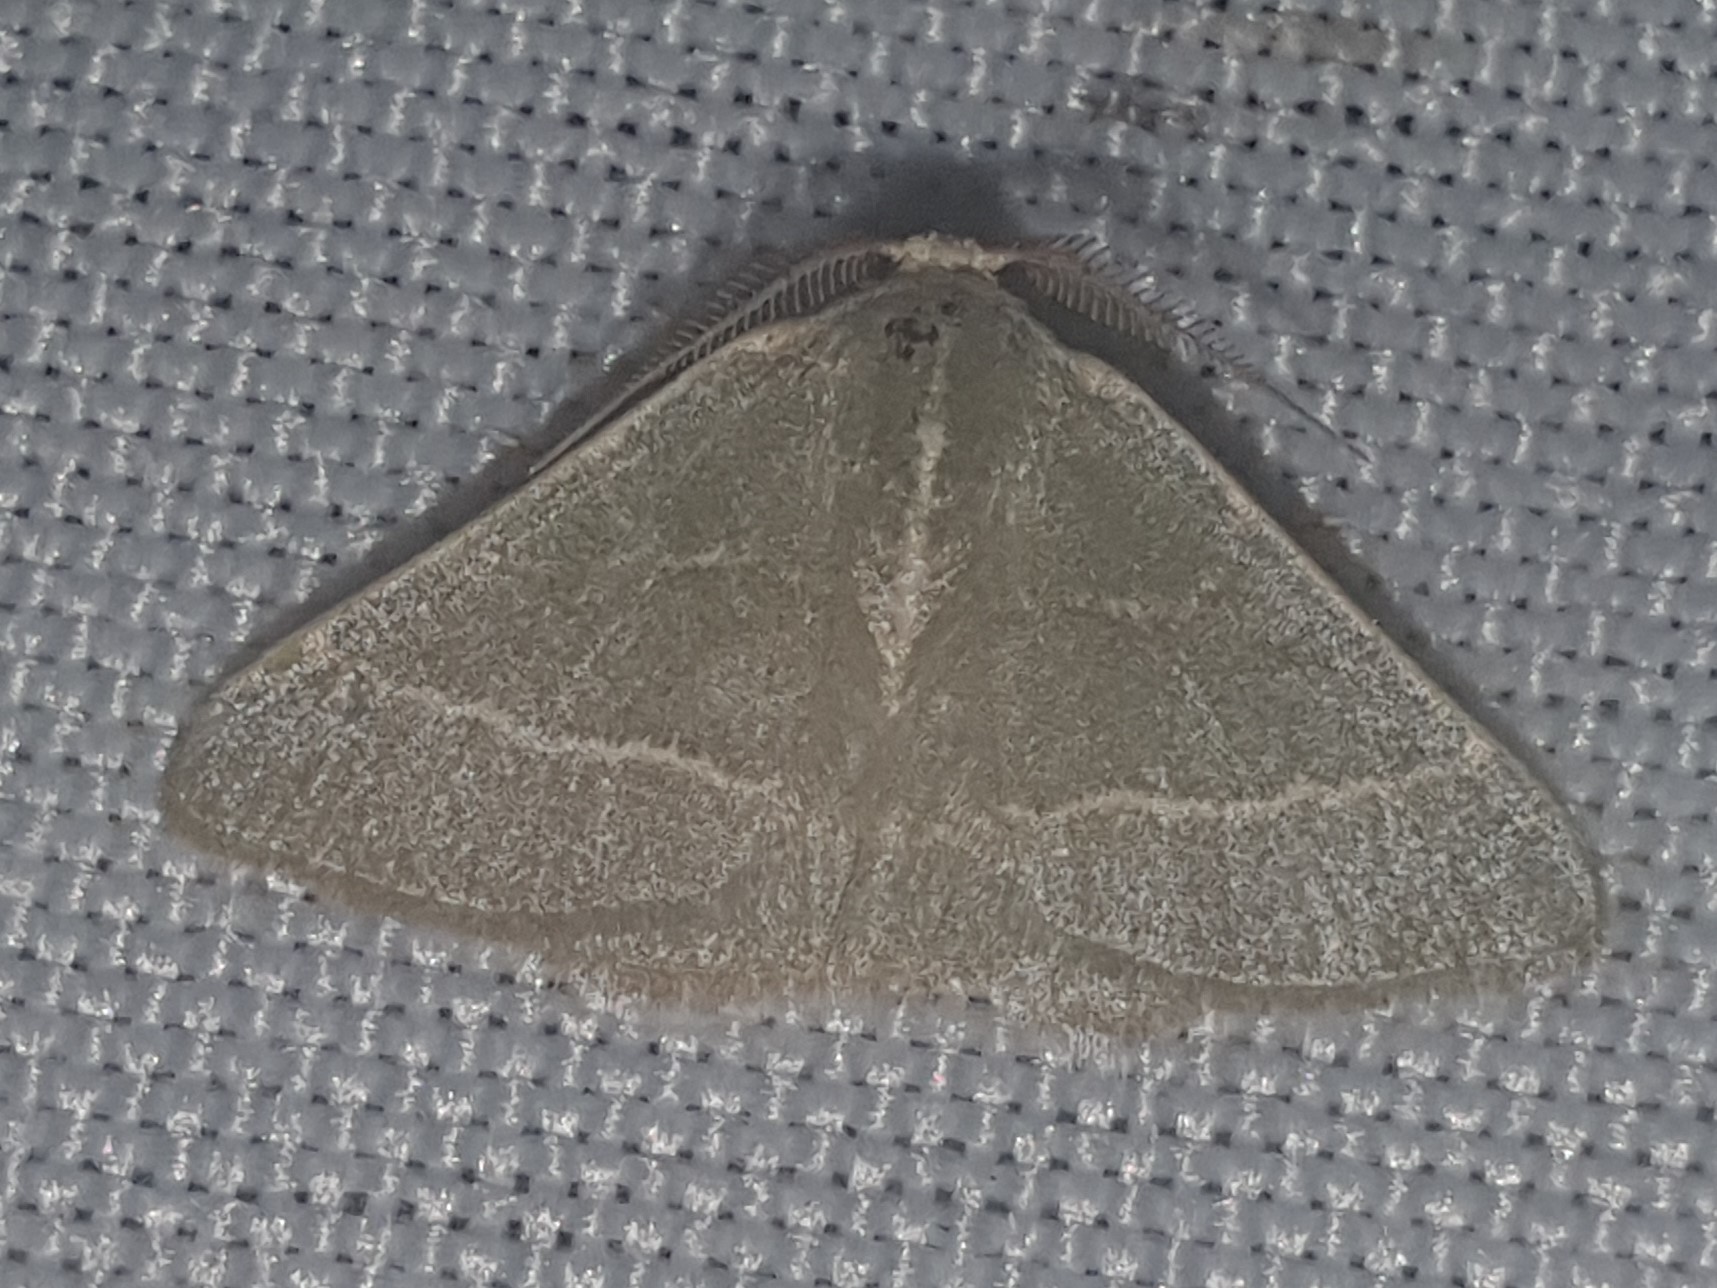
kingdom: Animalia
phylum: Arthropoda
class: Insecta
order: Lepidoptera
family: Geometridae
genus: Microloxia
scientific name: Microloxia herbaria
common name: Herb emerald
